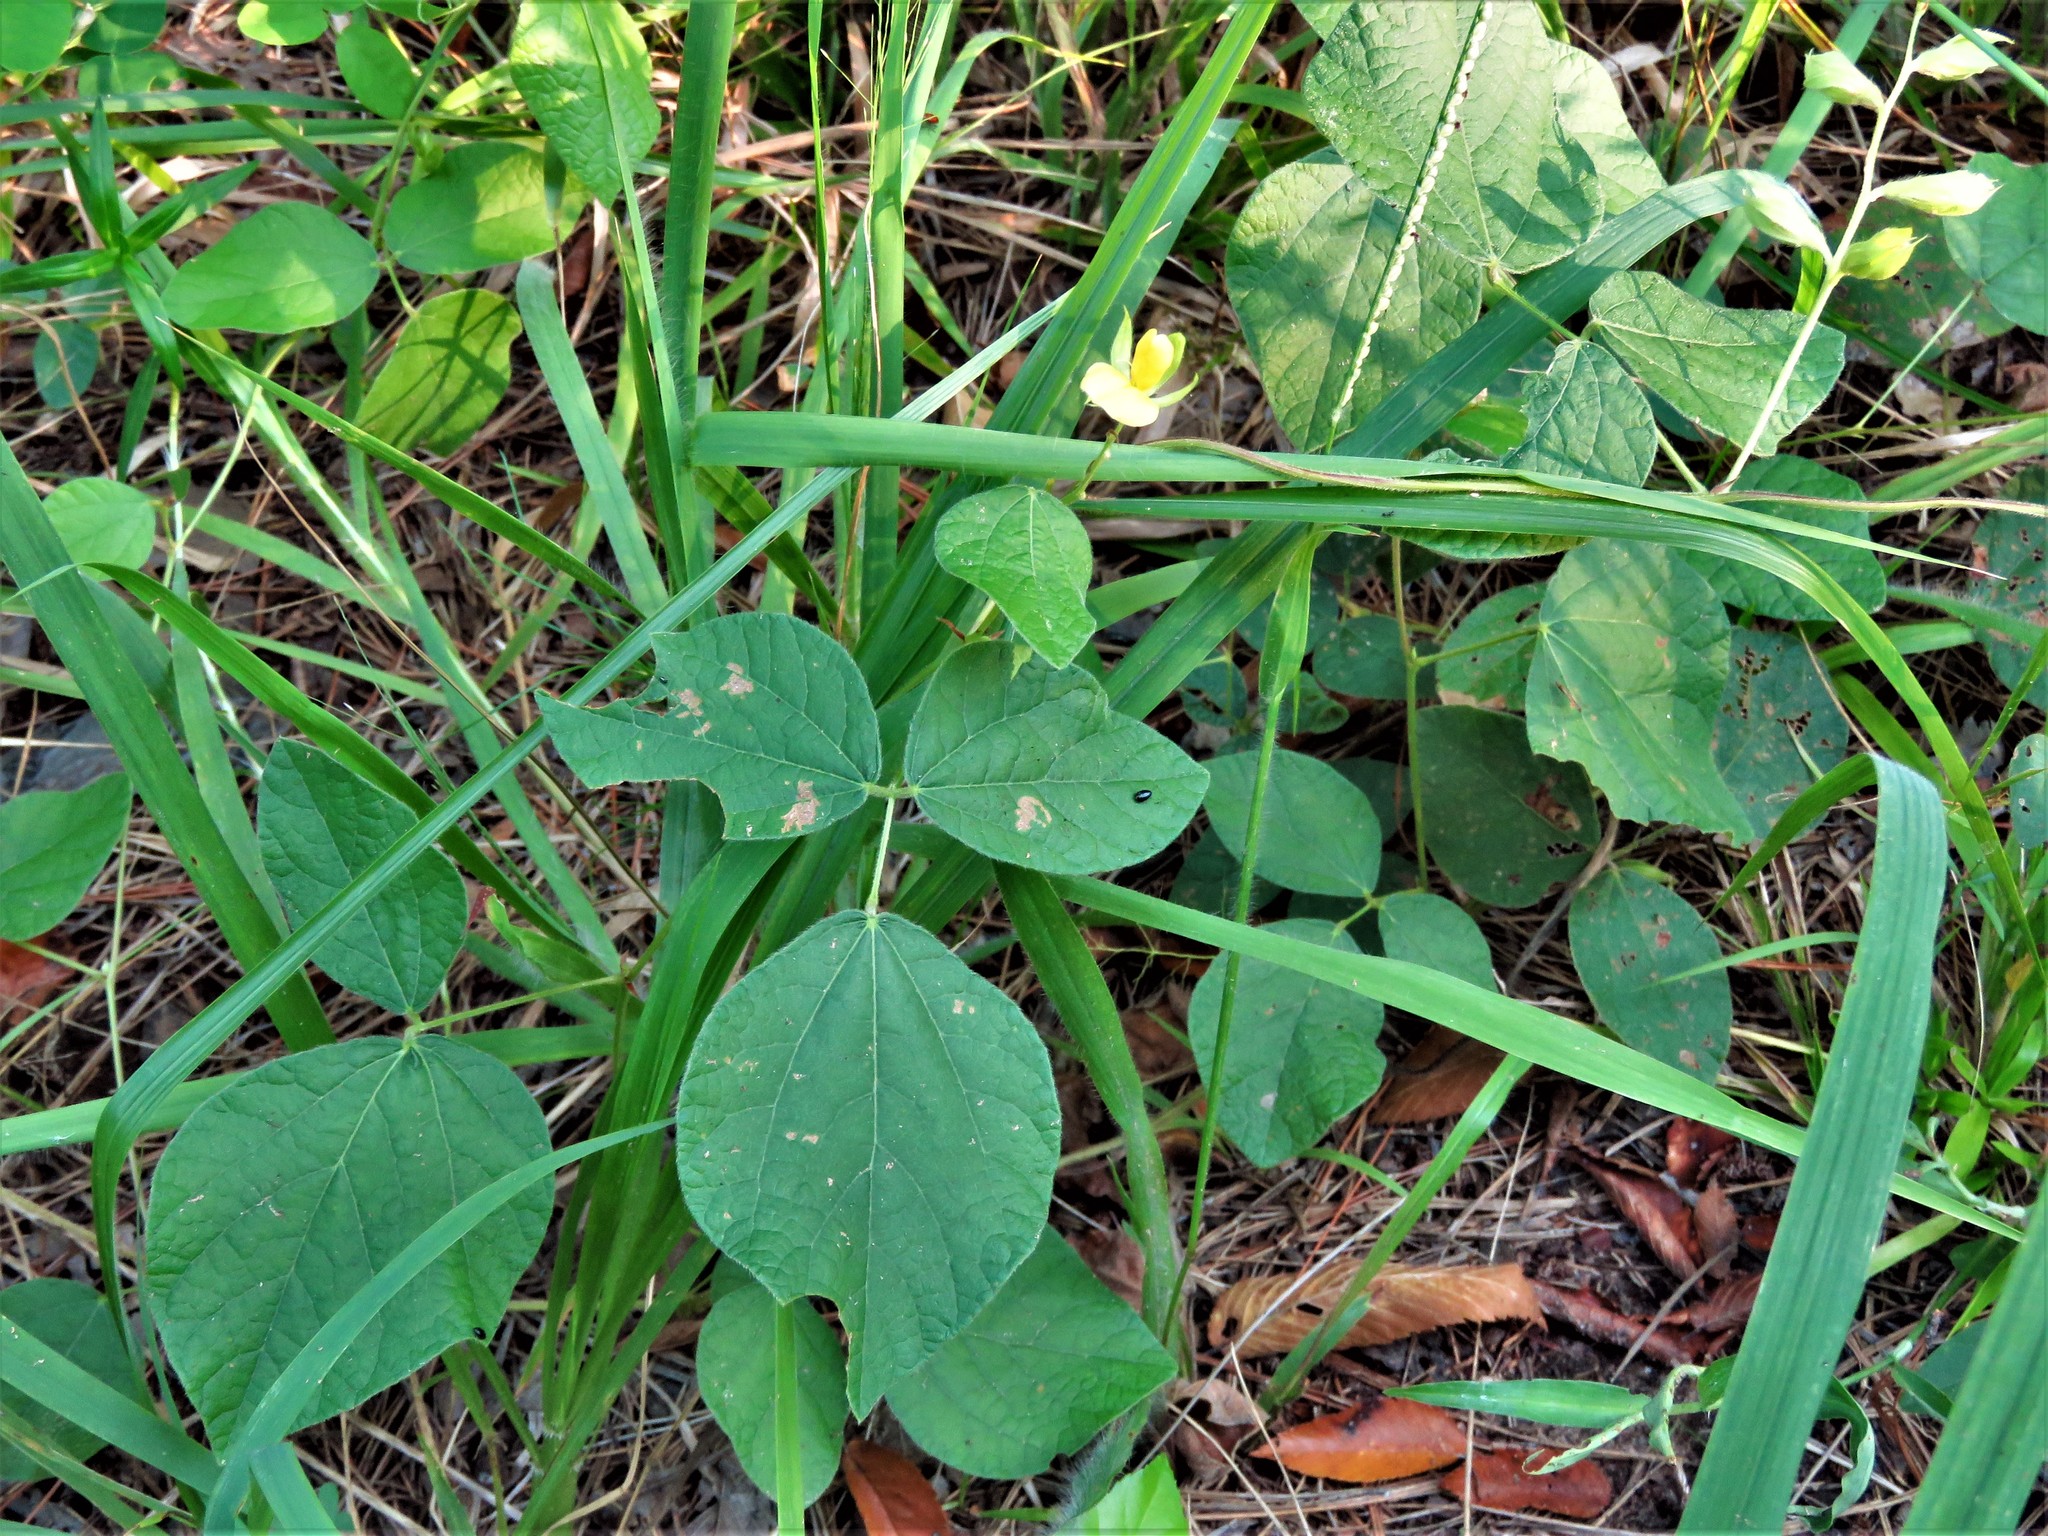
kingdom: Plantae
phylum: Tracheophyta
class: Magnoliopsida
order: Fabales
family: Fabaceae
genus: Rhynchosia
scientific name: Rhynchosia latifolia
